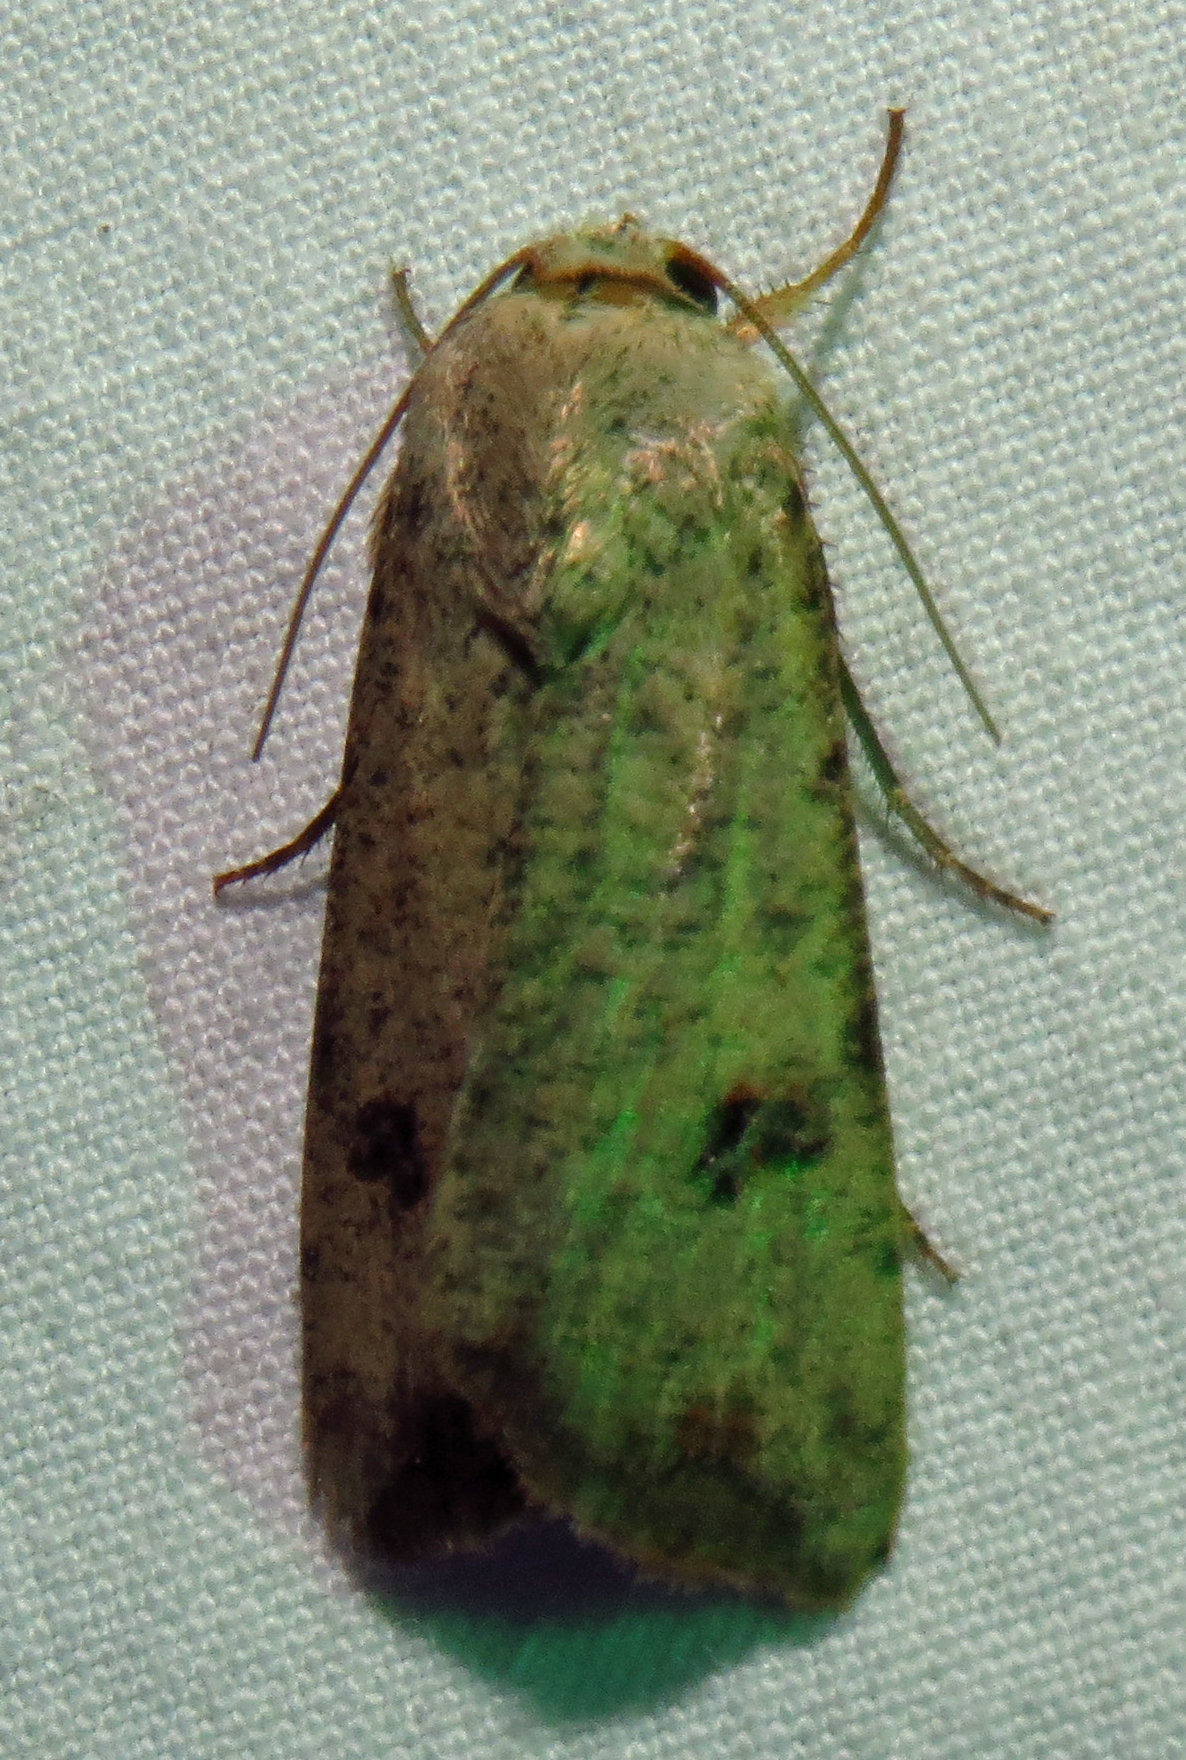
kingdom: Animalia
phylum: Arthropoda
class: Insecta
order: Lepidoptera
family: Noctuidae
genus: Anicla
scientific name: Anicla infecta
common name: Green cutworm
